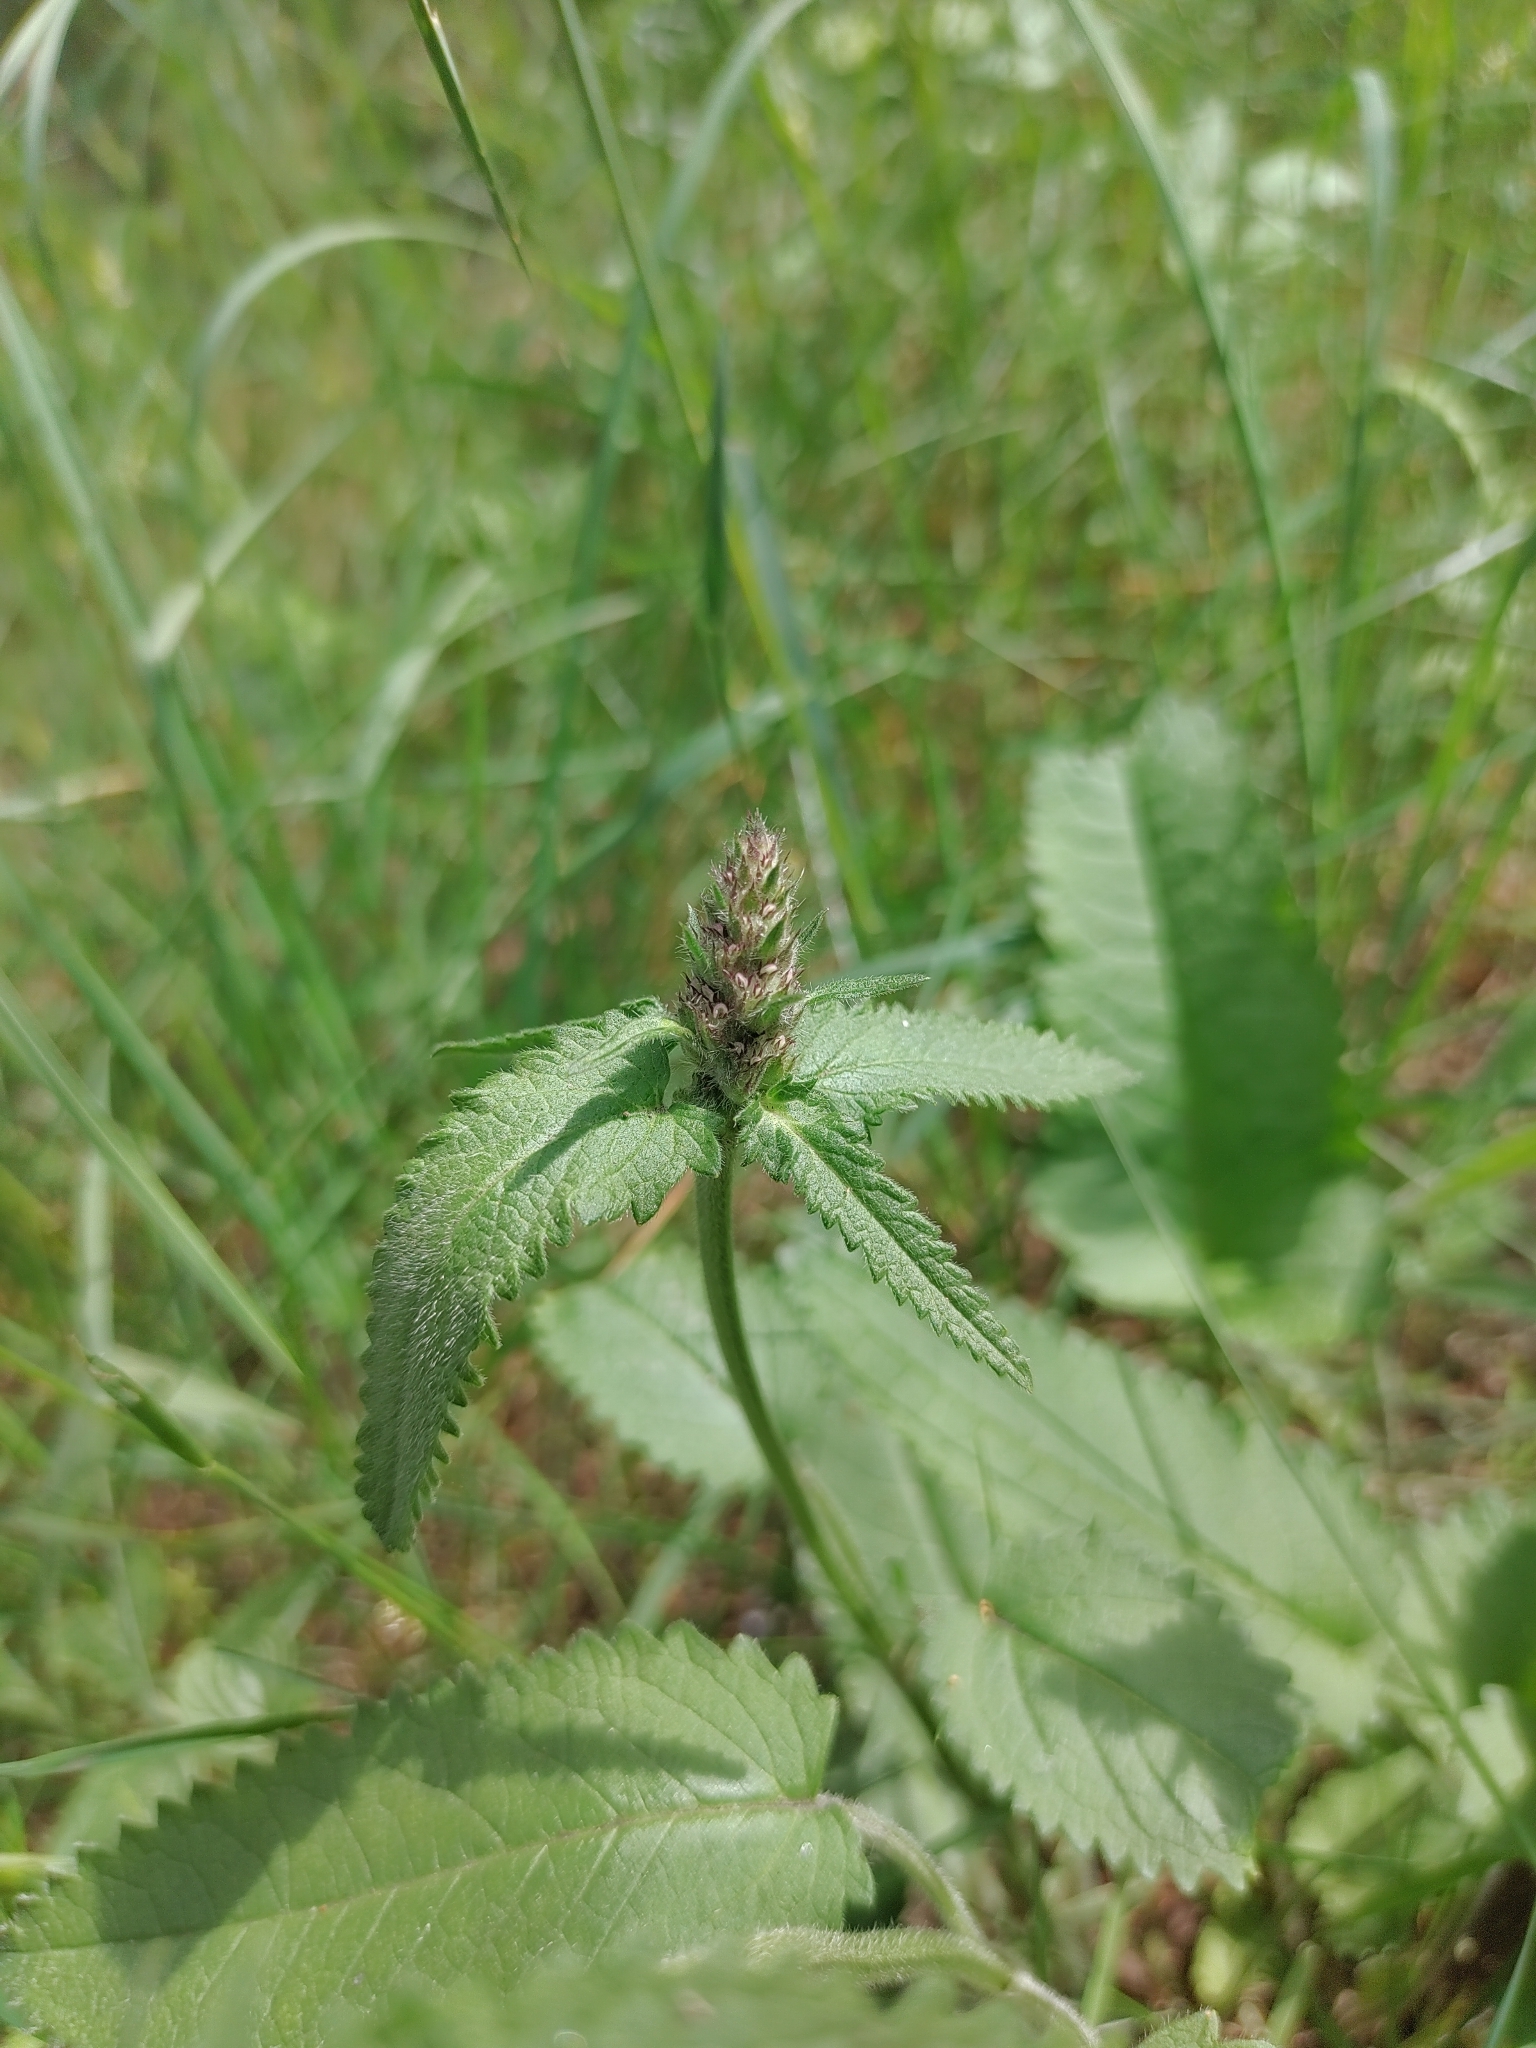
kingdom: Plantae
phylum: Tracheophyta
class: Magnoliopsida
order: Lamiales
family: Lamiaceae
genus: Betonica
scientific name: Betonica officinalis
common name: Bishop's-wort
